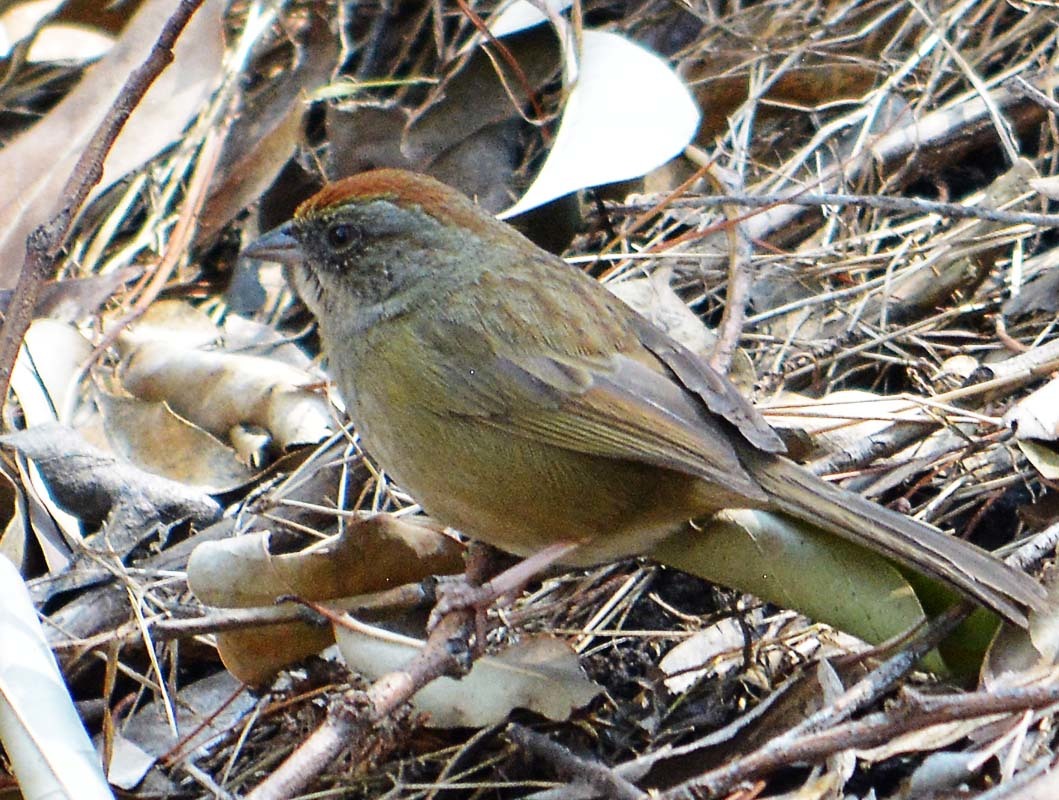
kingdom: Animalia
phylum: Chordata
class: Aves
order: Passeriformes
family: Passerellidae
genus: Aimophila
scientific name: Aimophila ruficeps
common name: Rufous-crowned sparrow
